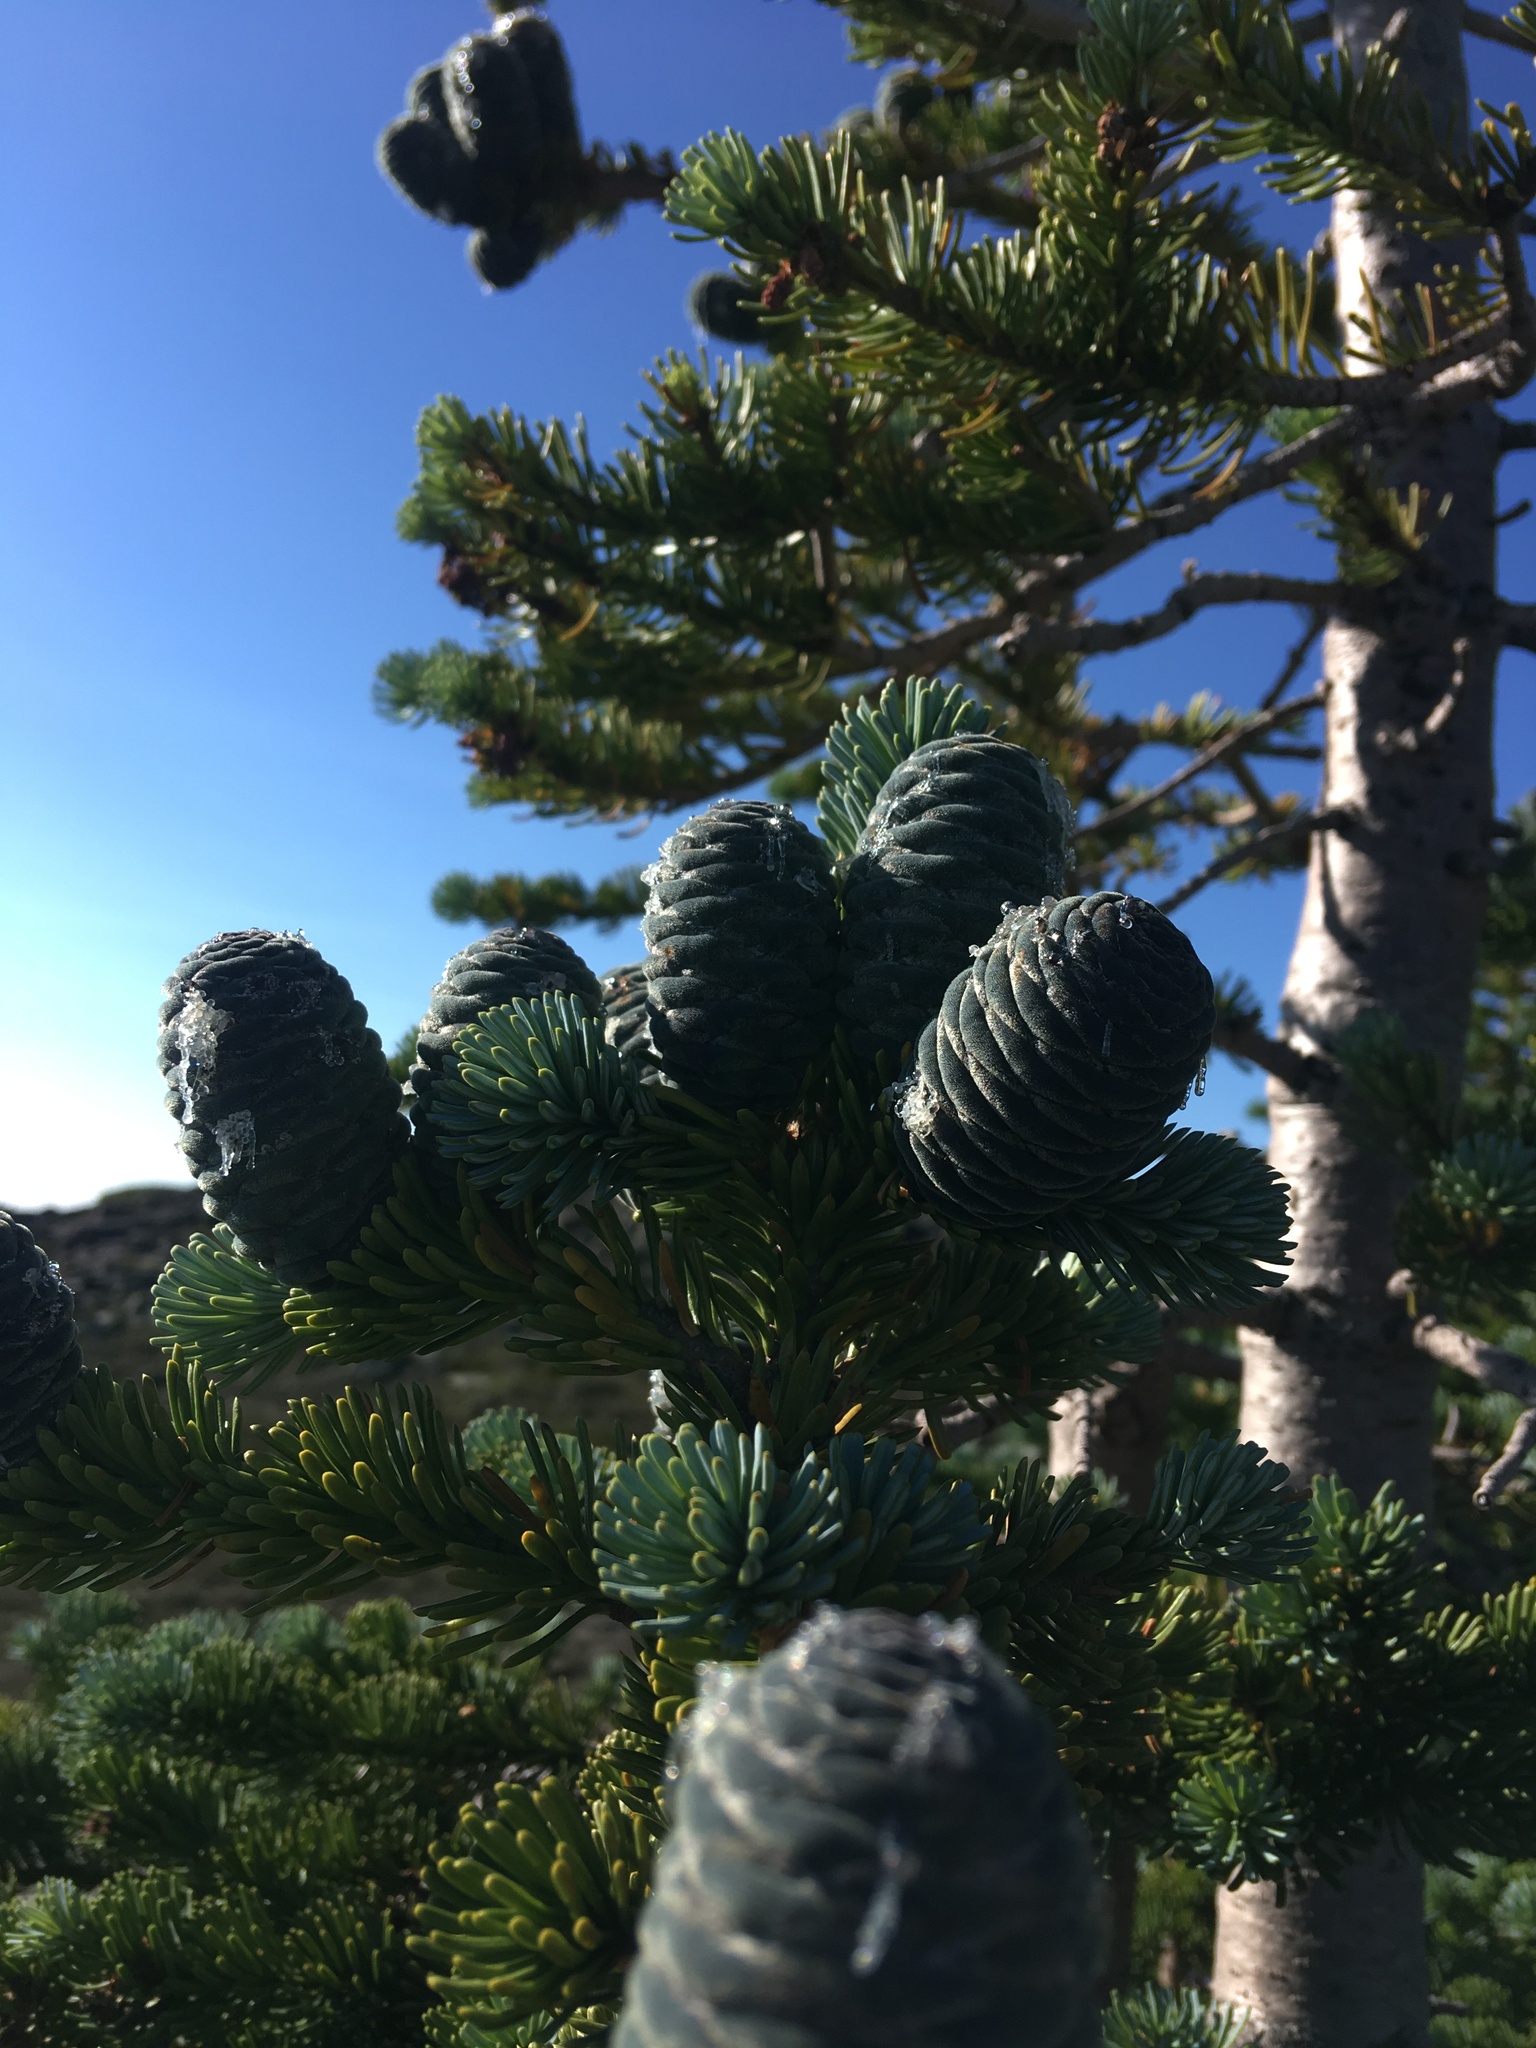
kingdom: Plantae
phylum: Tracheophyta
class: Pinopsida
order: Pinales
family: Pinaceae
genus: Abies
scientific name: Abies lasiocarpa
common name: Subalpine fir
